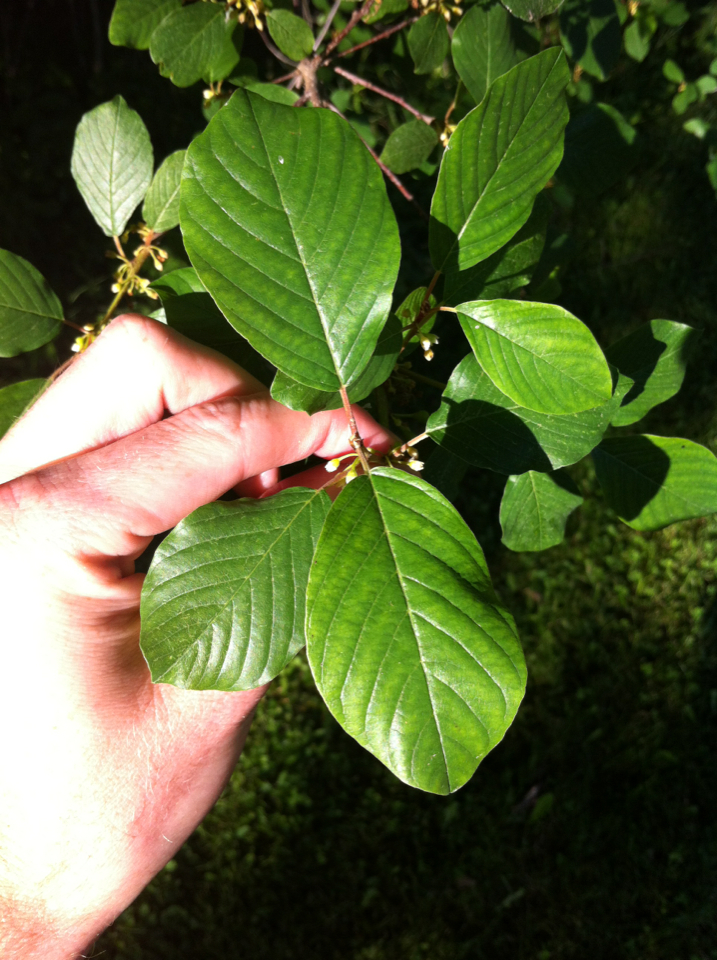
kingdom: Plantae
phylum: Tracheophyta
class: Magnoliopsida
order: Rosales
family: Rhamnaceae
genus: Frangula
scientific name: Frangula alnus
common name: Alder buckthorn
